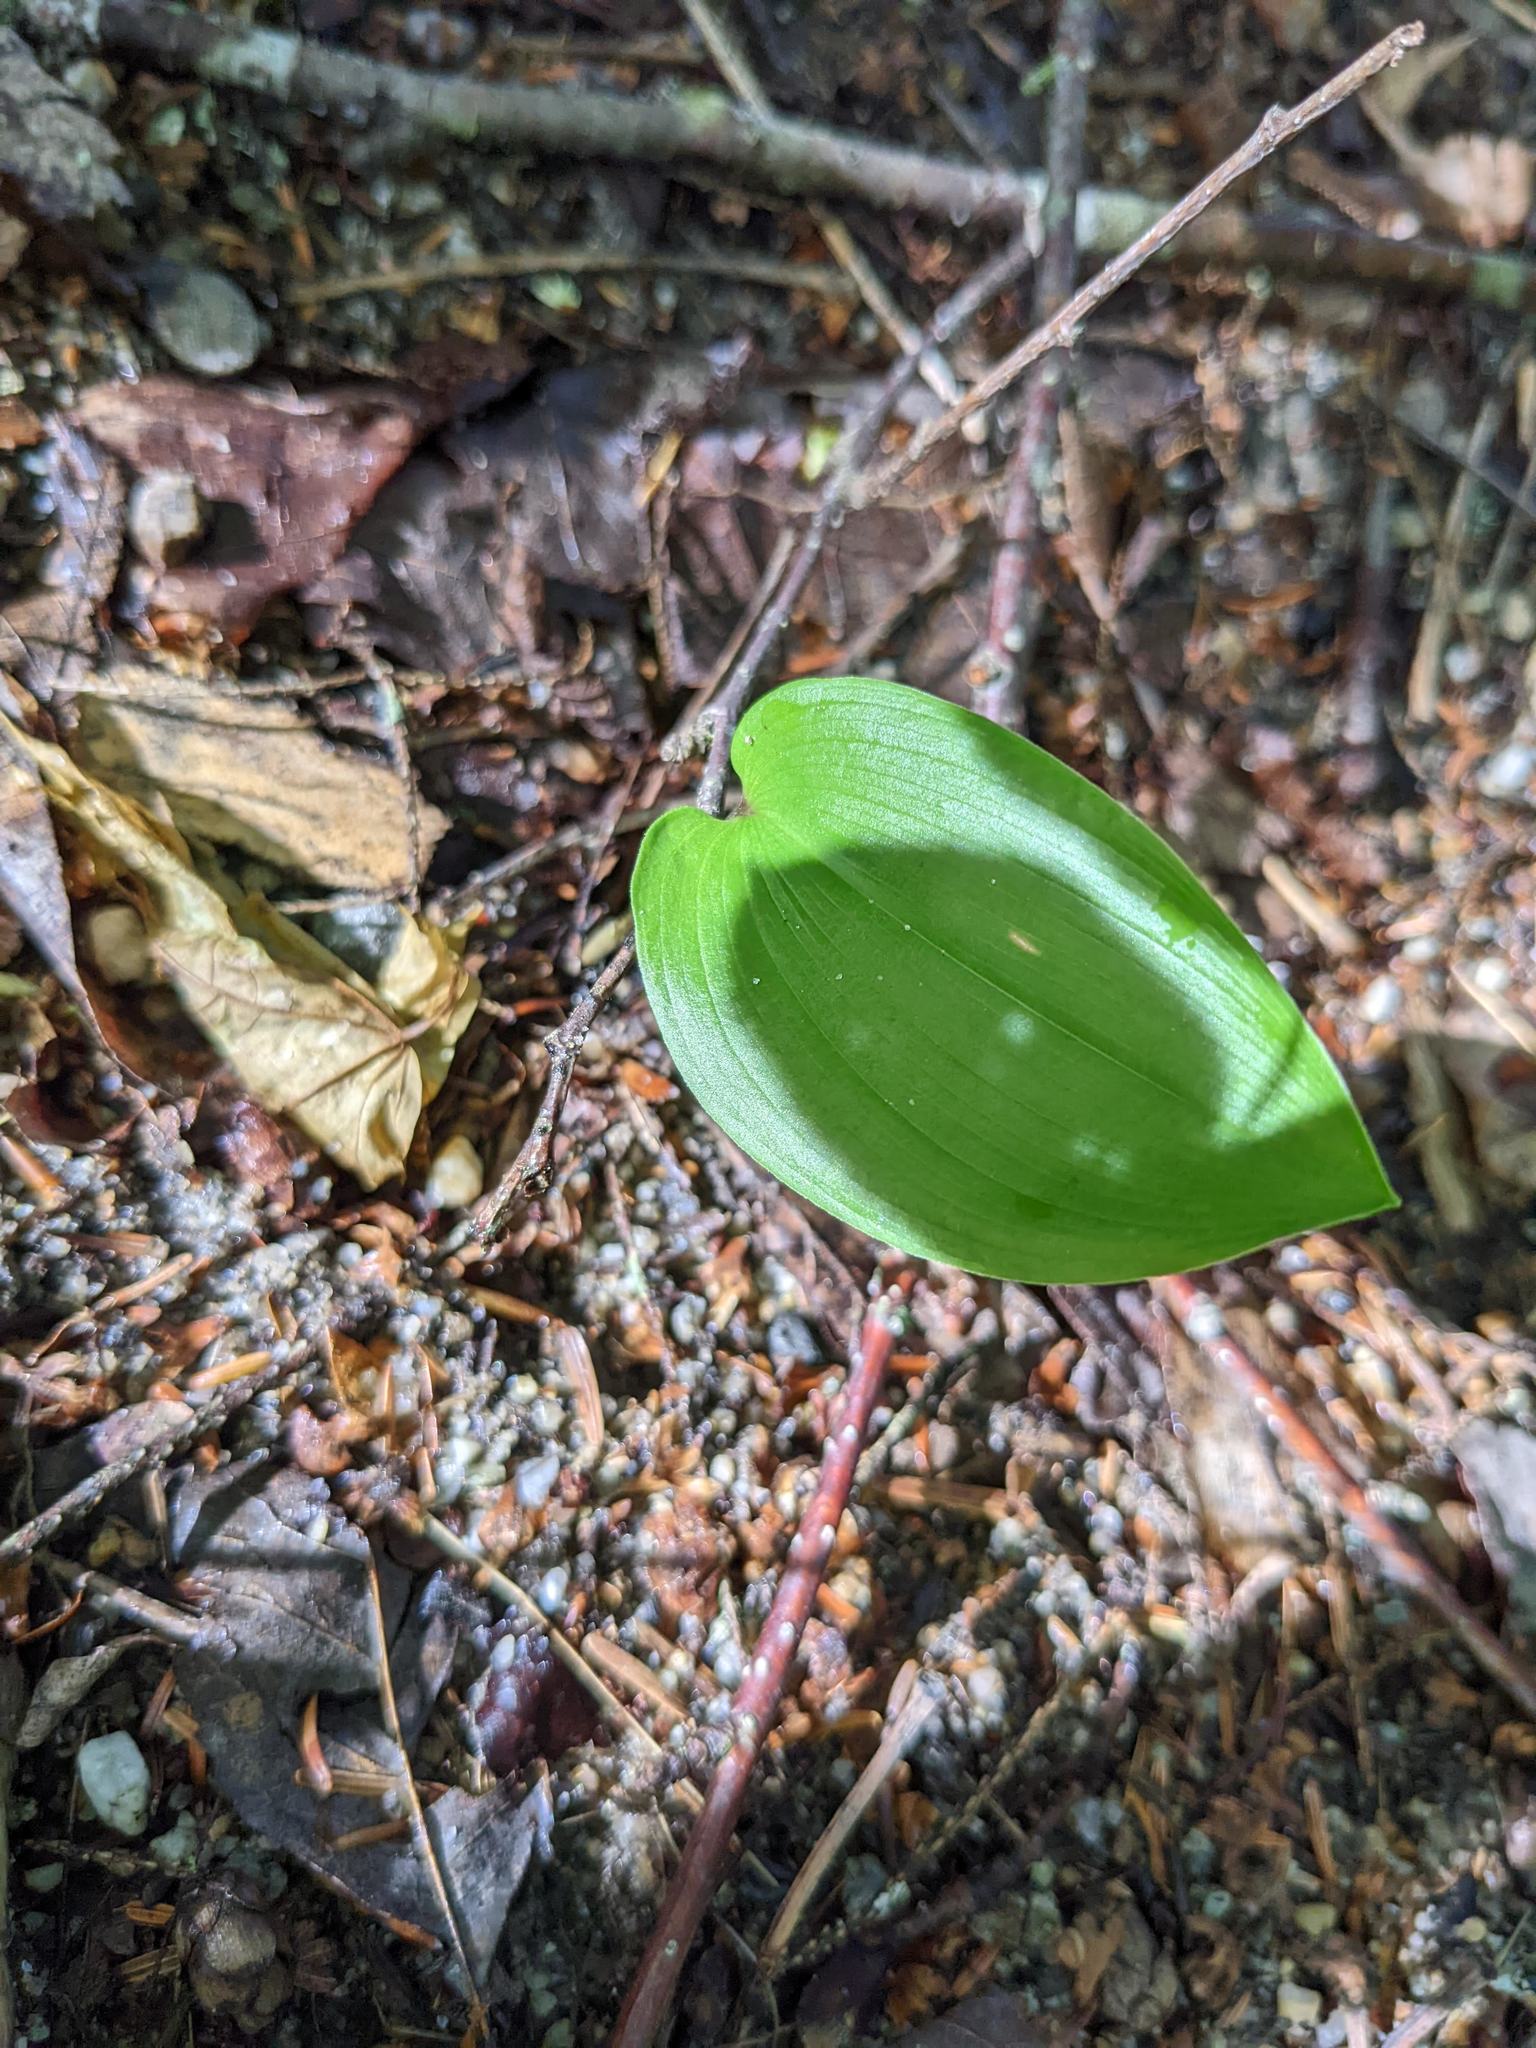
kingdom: Plantae
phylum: Tracheophyta
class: Liliopsida
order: Asparagales
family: Asparagaceae
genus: Maianthemum
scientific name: Maianthemum canadense
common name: False lily-of-the-valley
